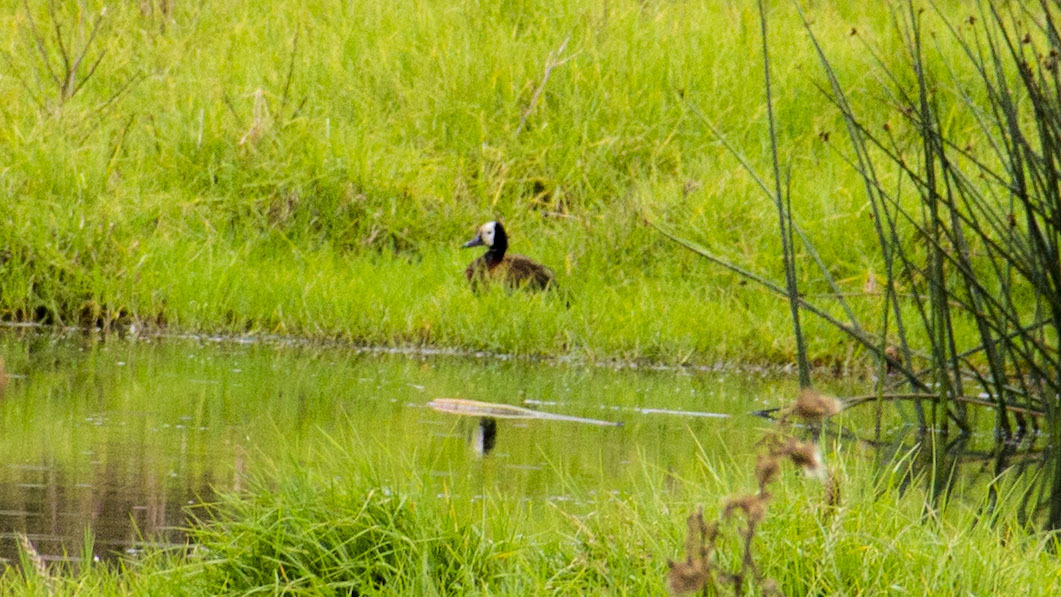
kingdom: Animalia
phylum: Chordata
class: Aves
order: Anseriformes
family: Anatidae
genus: Dendrocygna
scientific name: Dendrocygna viduata
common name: White-faced whistling duck
